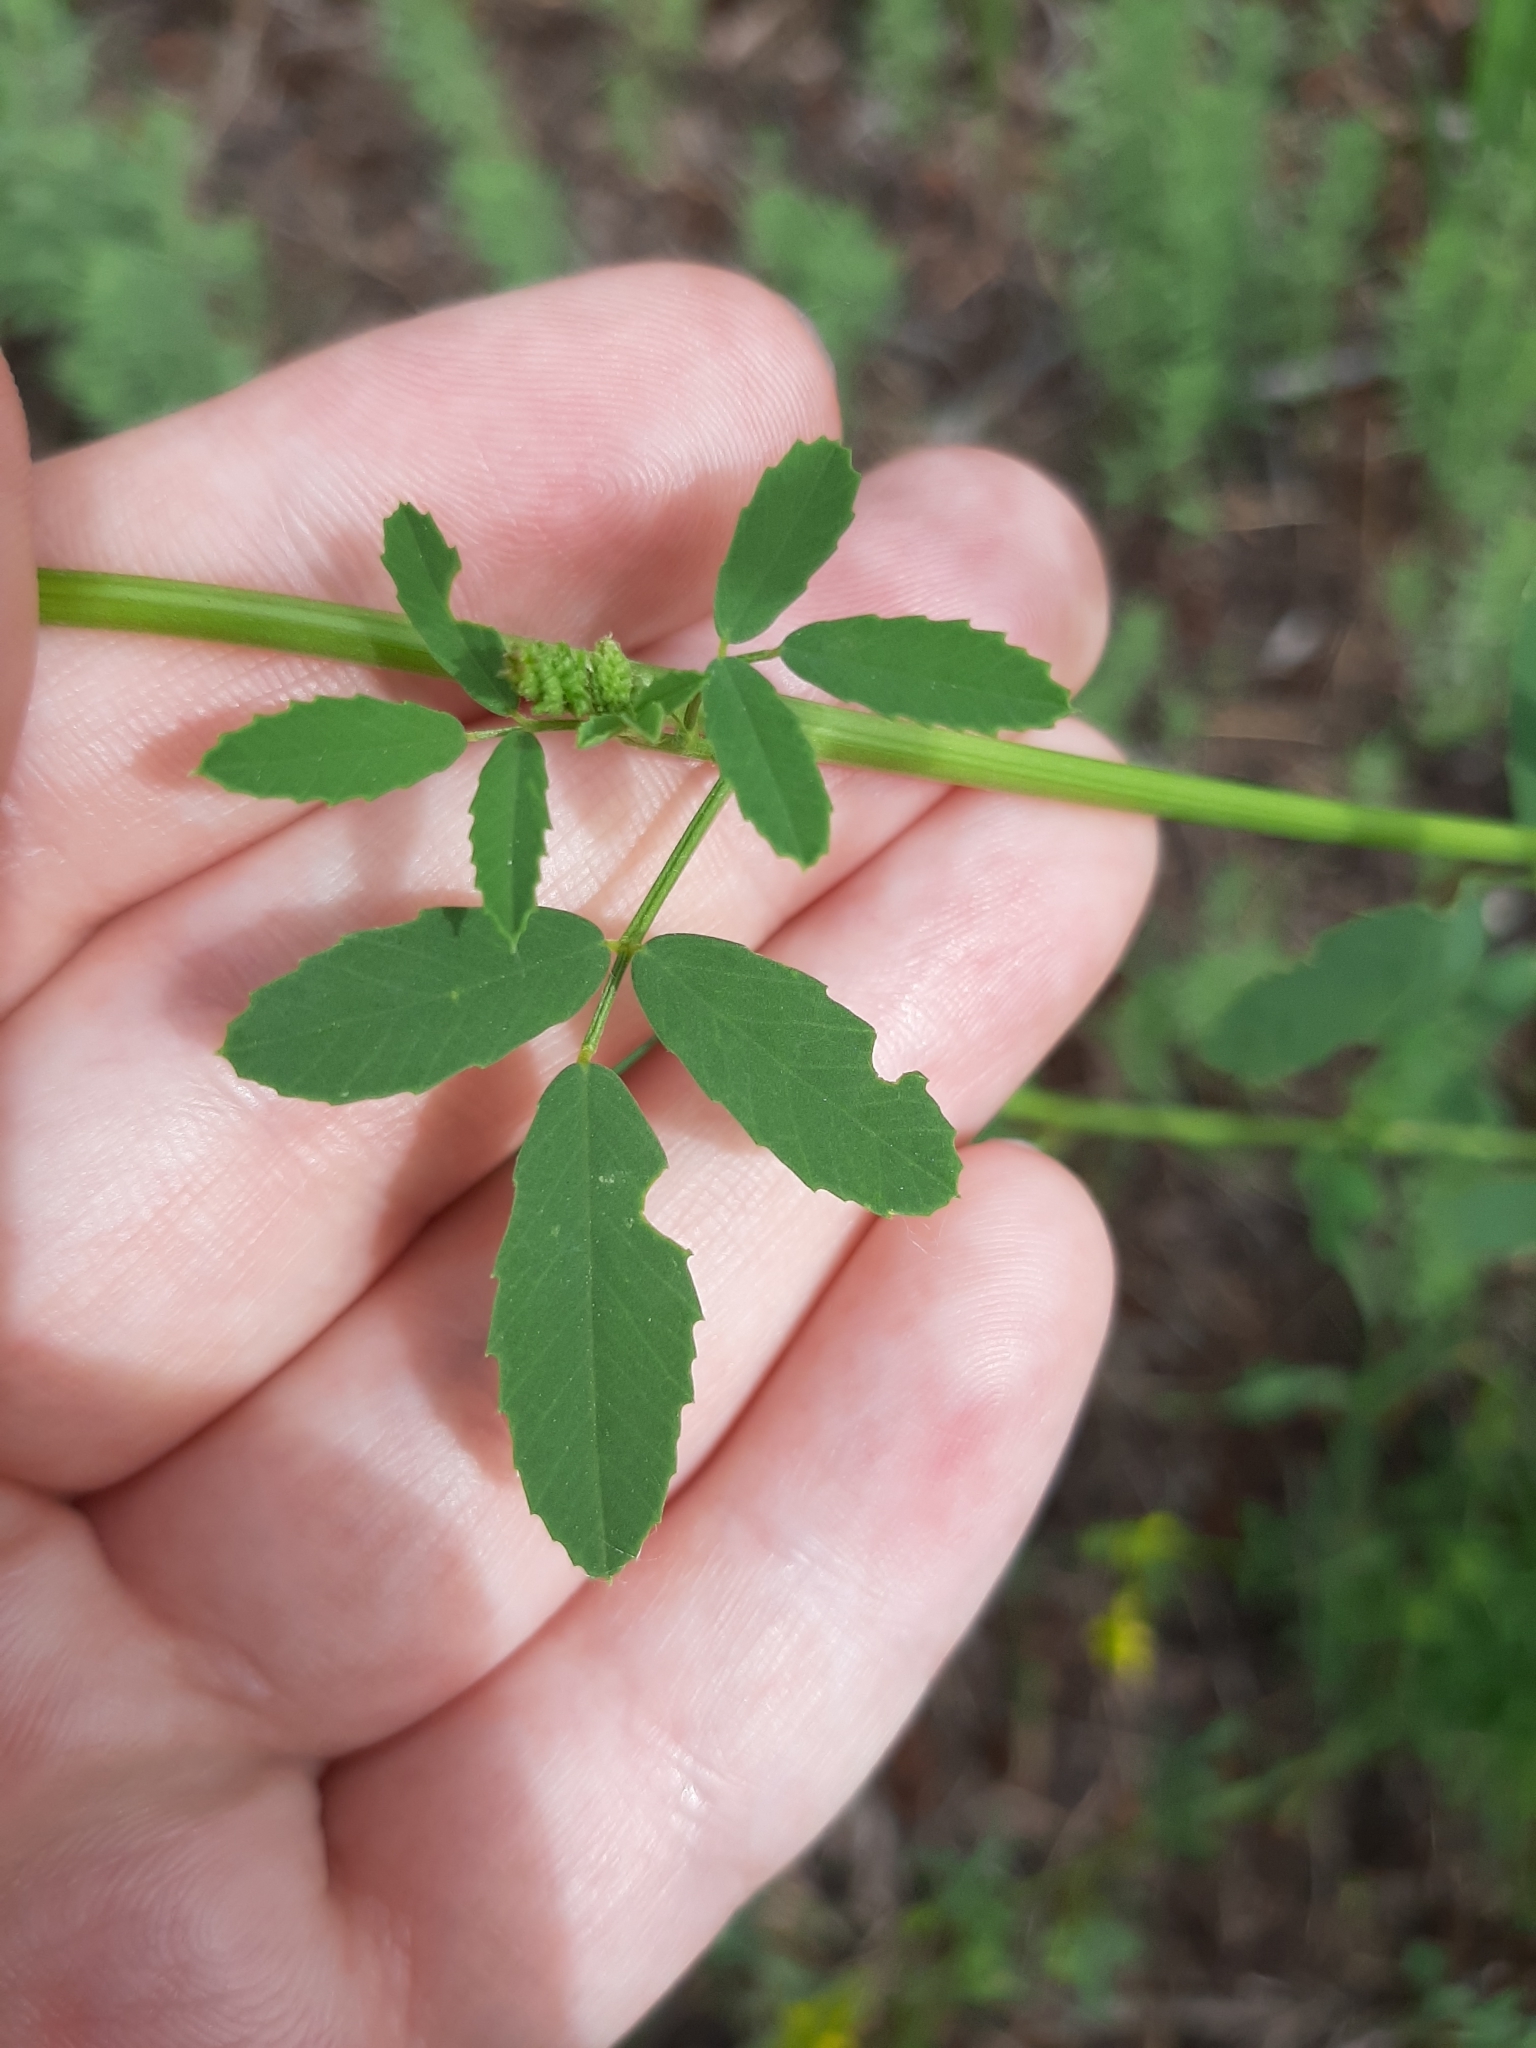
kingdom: Plantae
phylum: Tracheophyta
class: Magnoliopsida
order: Fabales
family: Fabaceae
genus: Melilotus
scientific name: Melilotus officinalis
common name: Sweetclover
